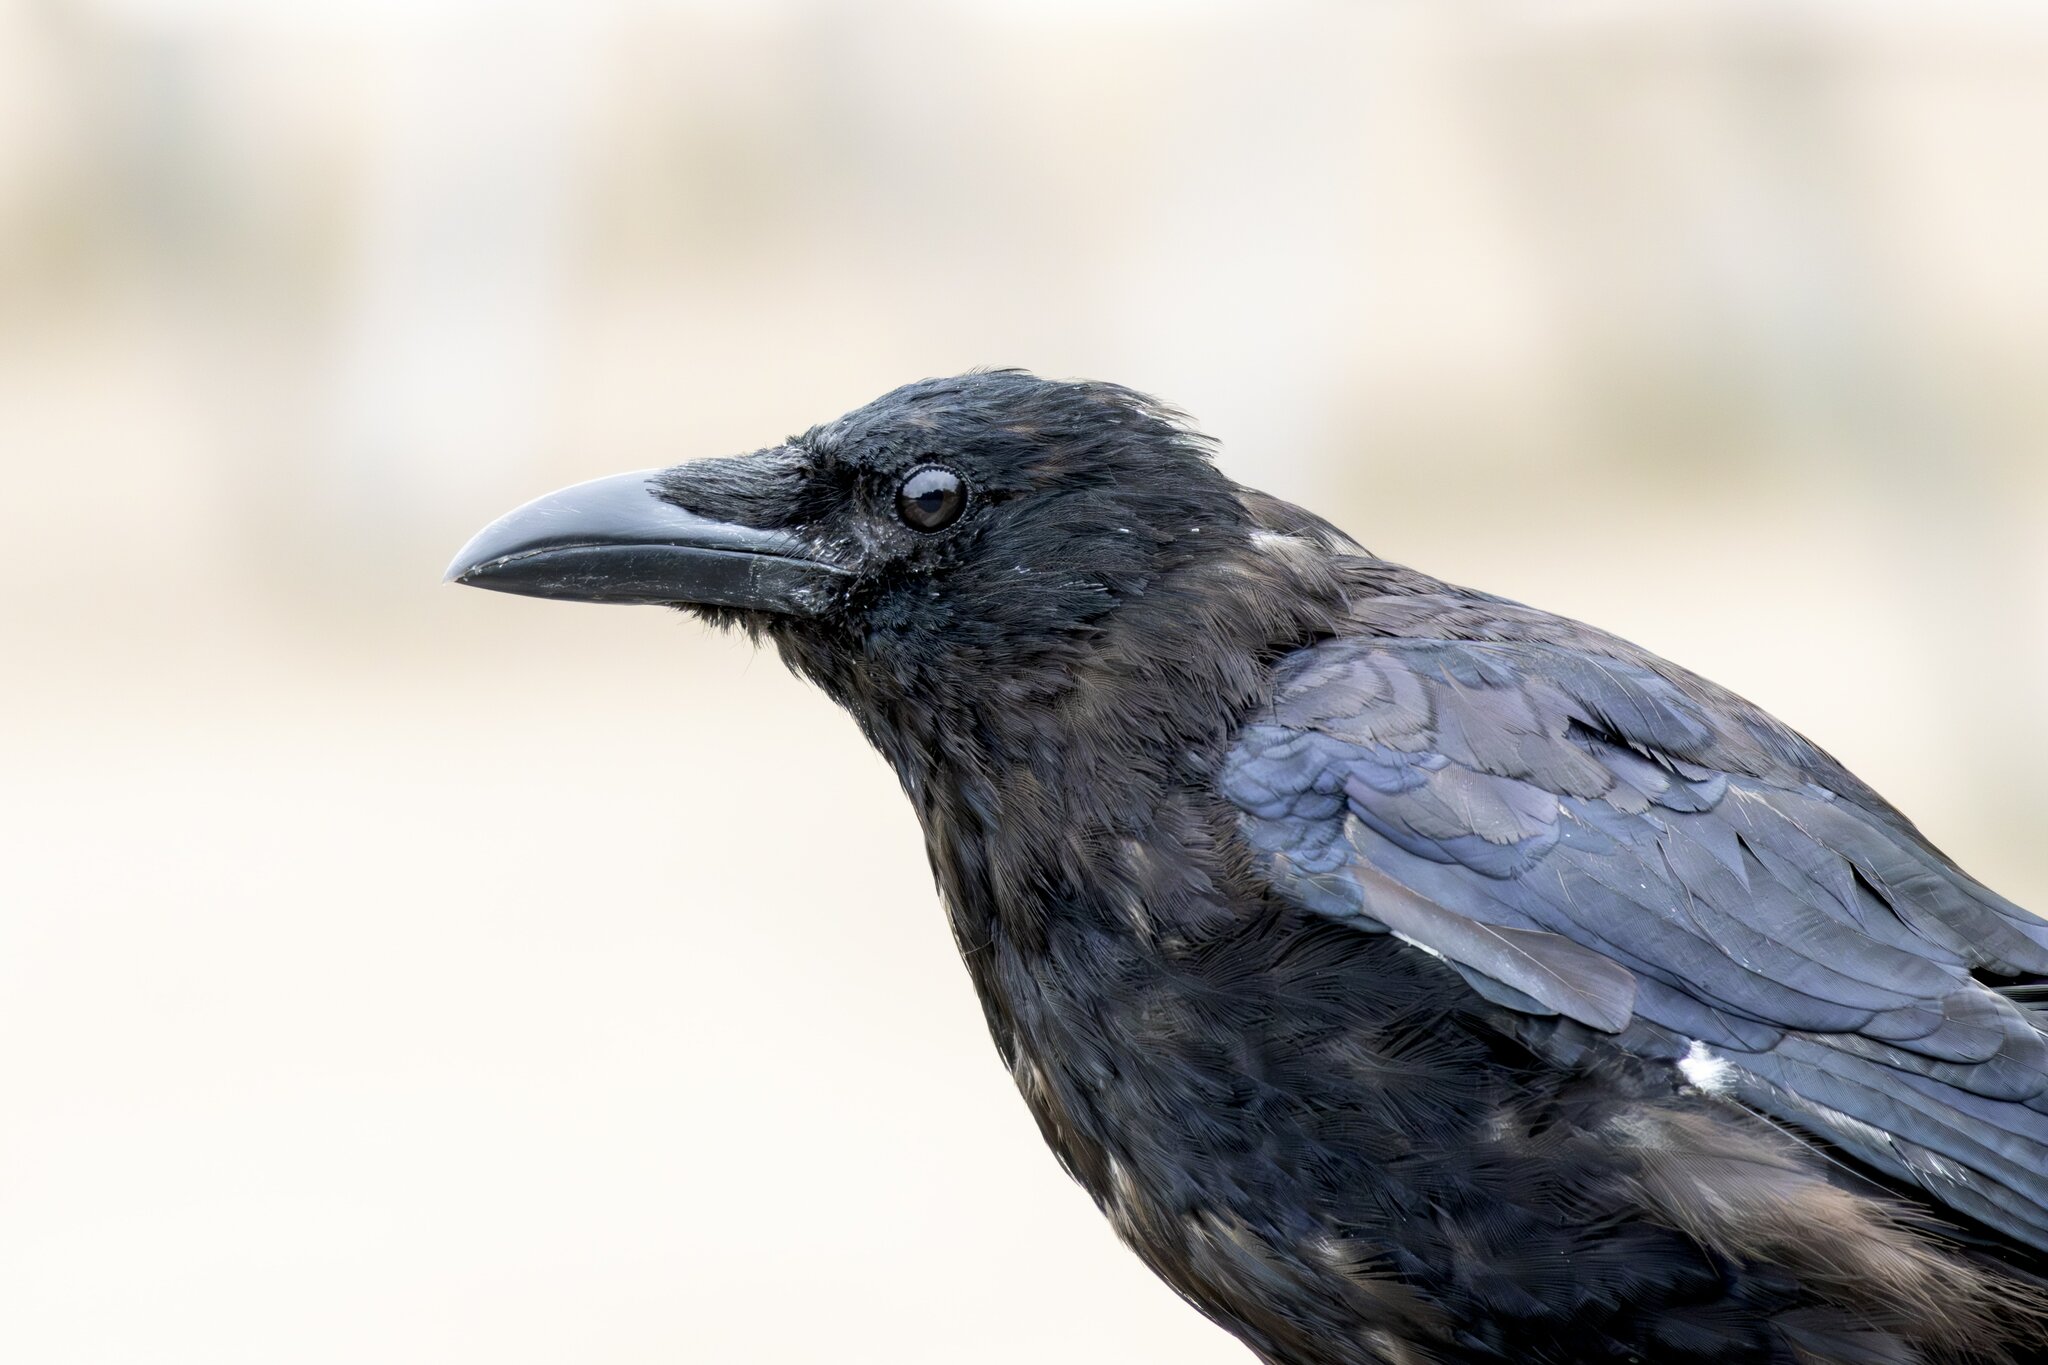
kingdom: Animalia
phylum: Chordata
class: Aves
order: Passeriformes
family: Corvidae
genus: Corvus
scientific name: Corvus corone
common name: Carrion crow
